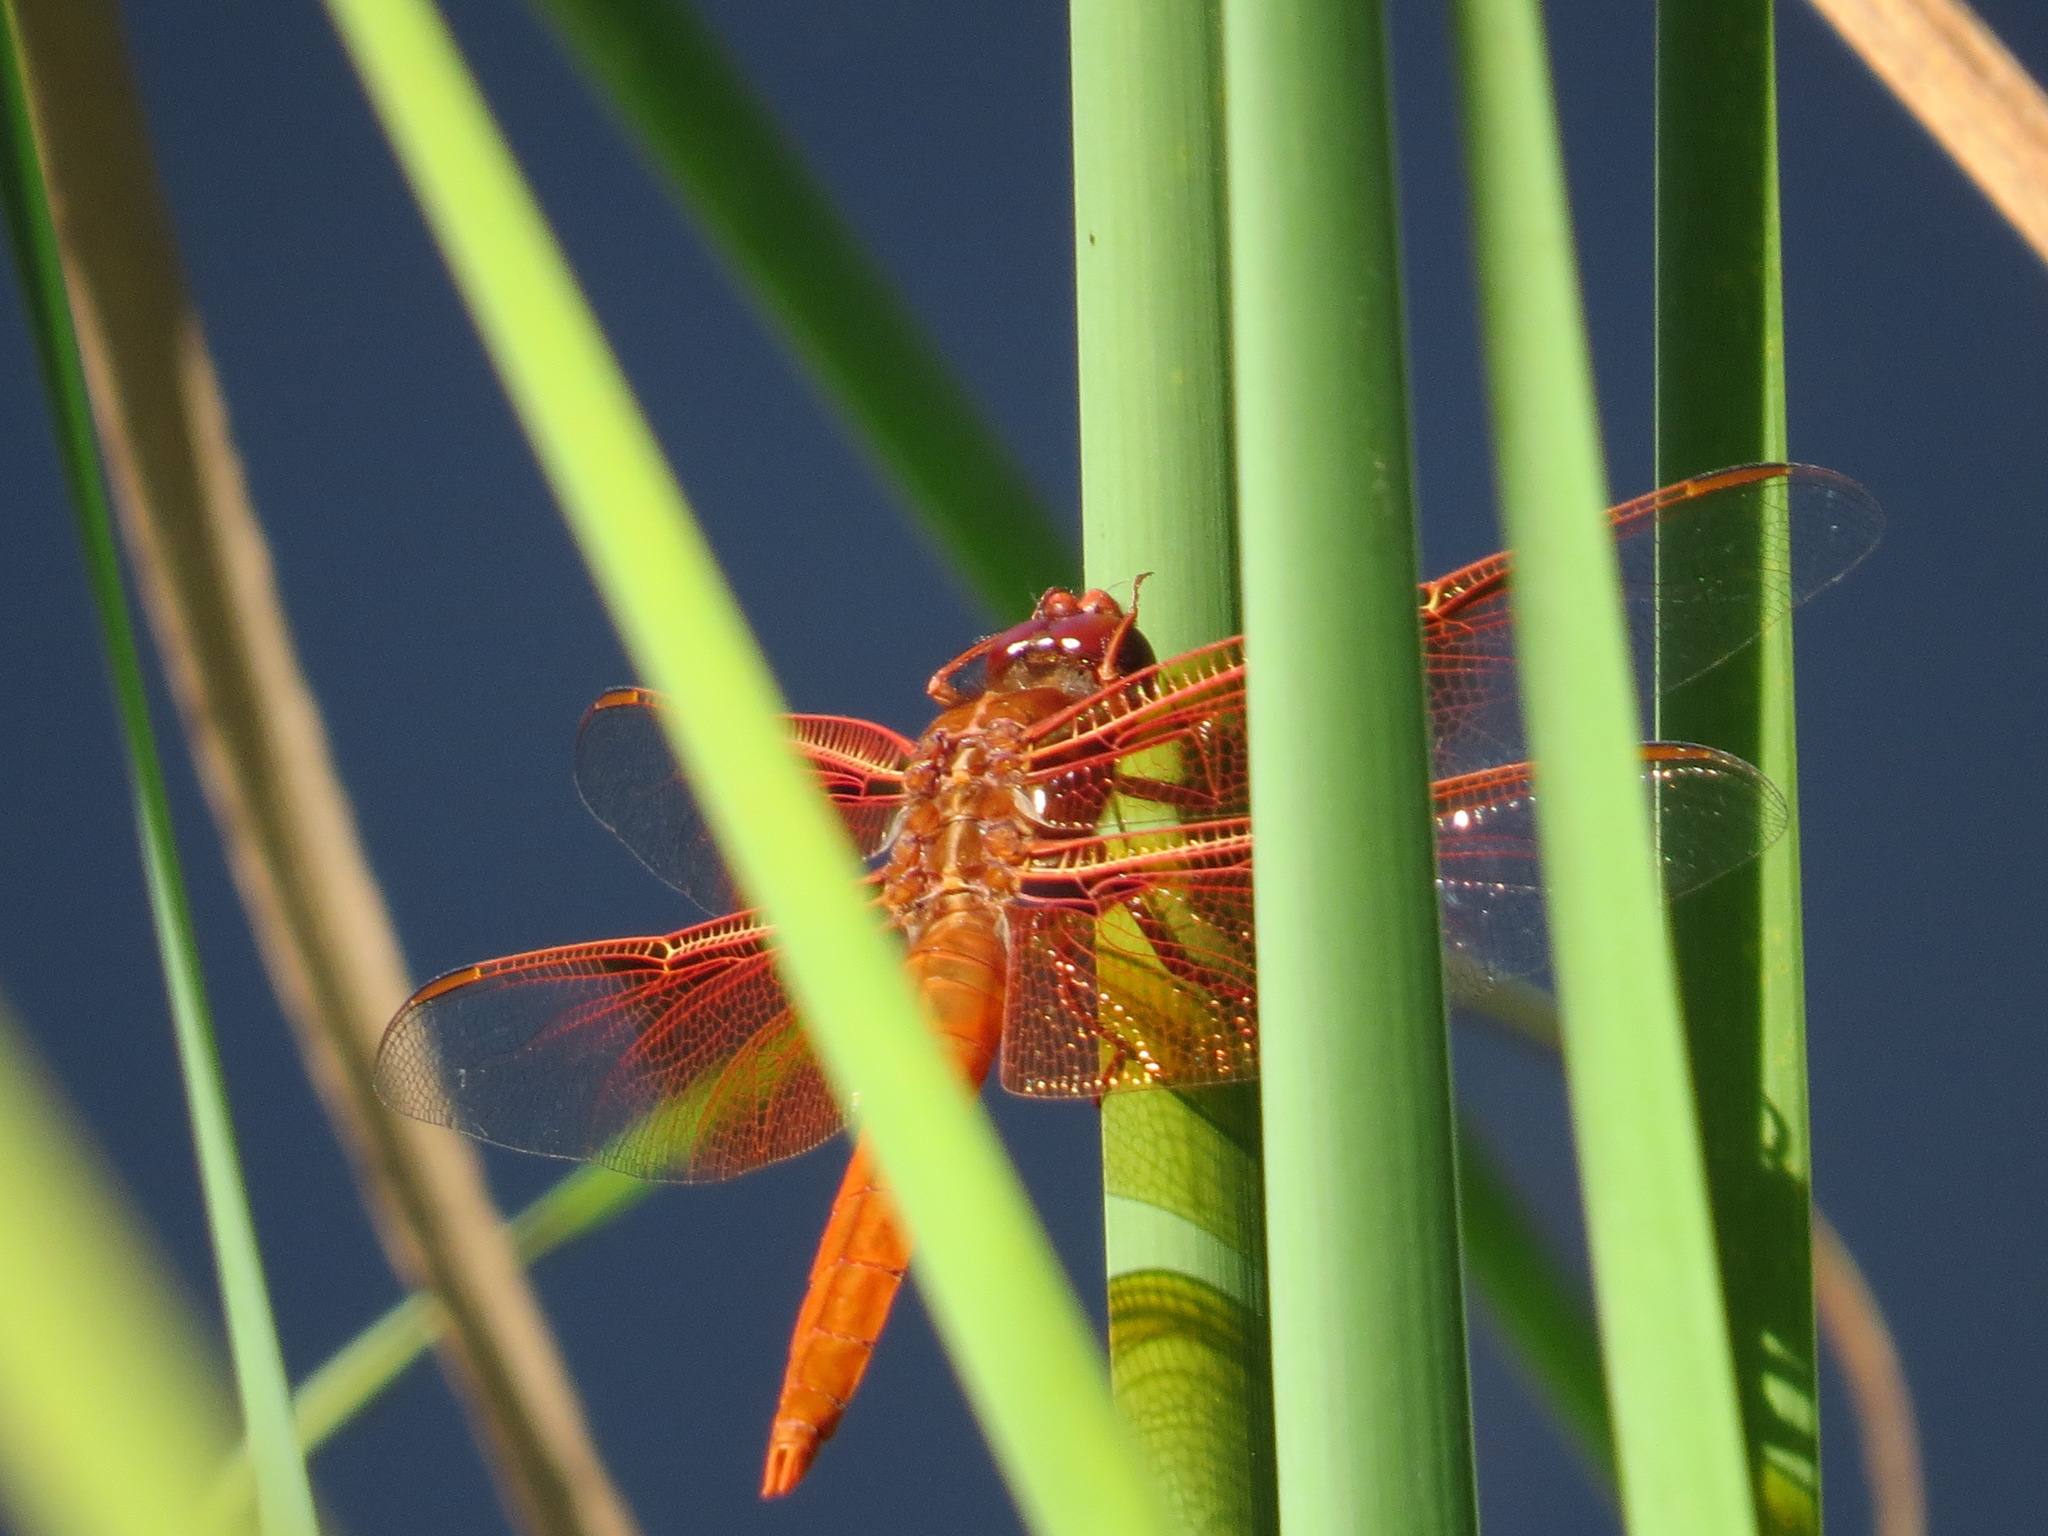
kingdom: Animalia
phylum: Arthropoda
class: Insecta
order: Odonata
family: Libellulidae
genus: Libellula
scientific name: Libellula saturata
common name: Flame skimmer
